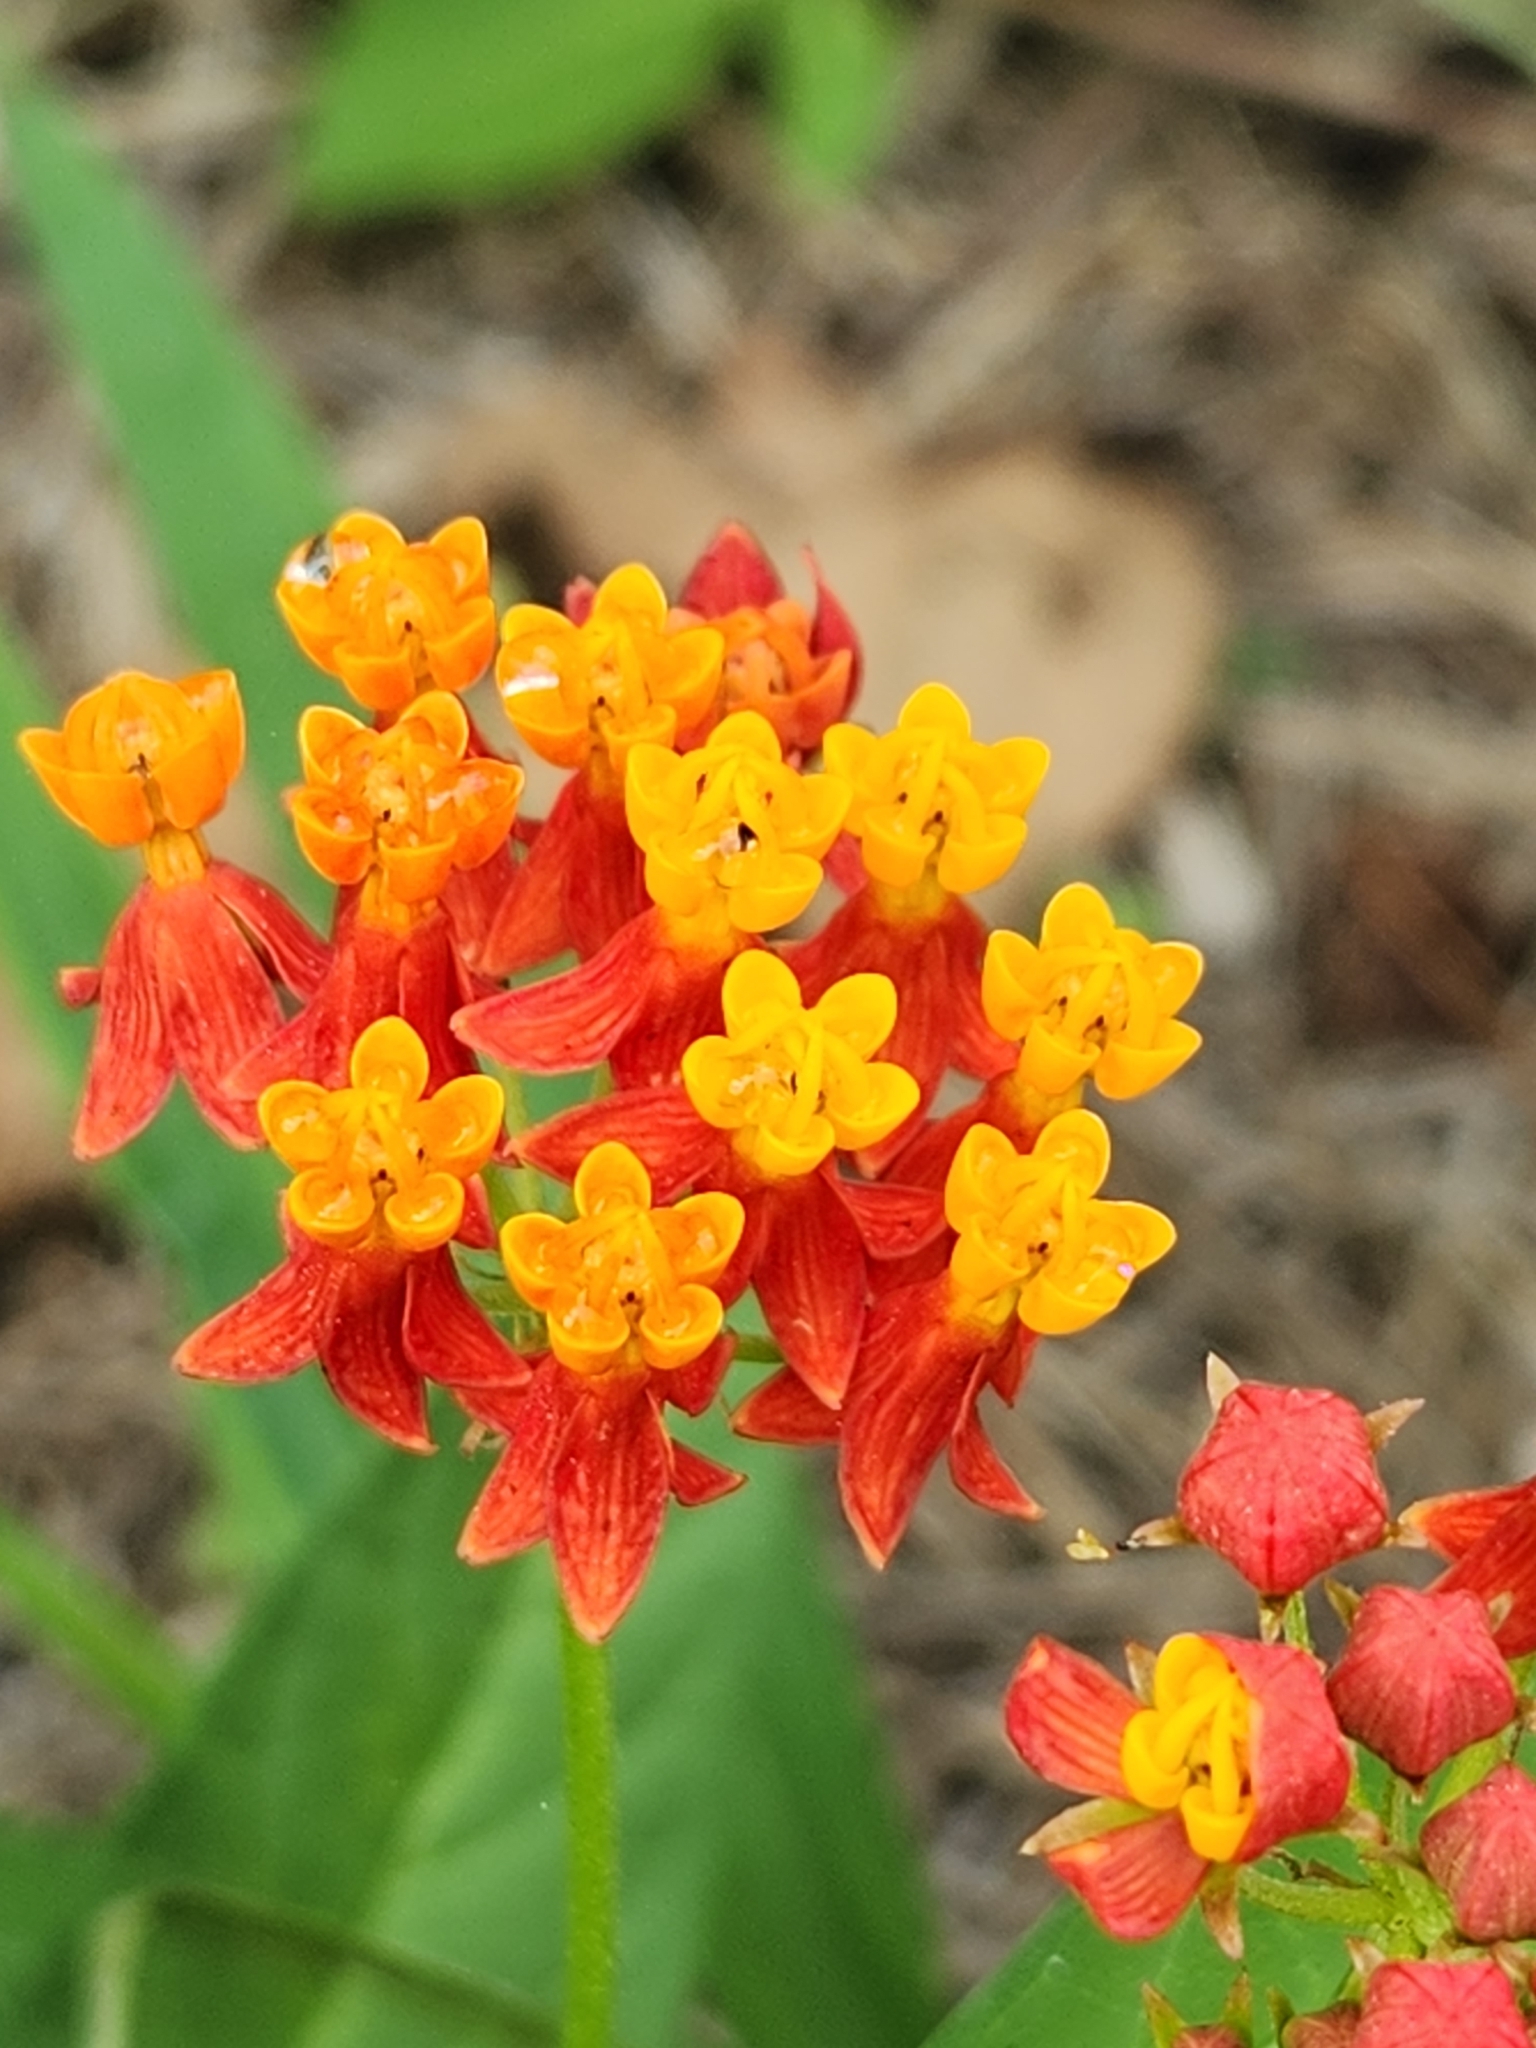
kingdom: Plantae
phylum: Tracheophyta
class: Magnoliopsida
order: Gentianales
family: Apocynaceae
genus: Asclepias
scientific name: Asclepias curassavica
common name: Bloodflower
